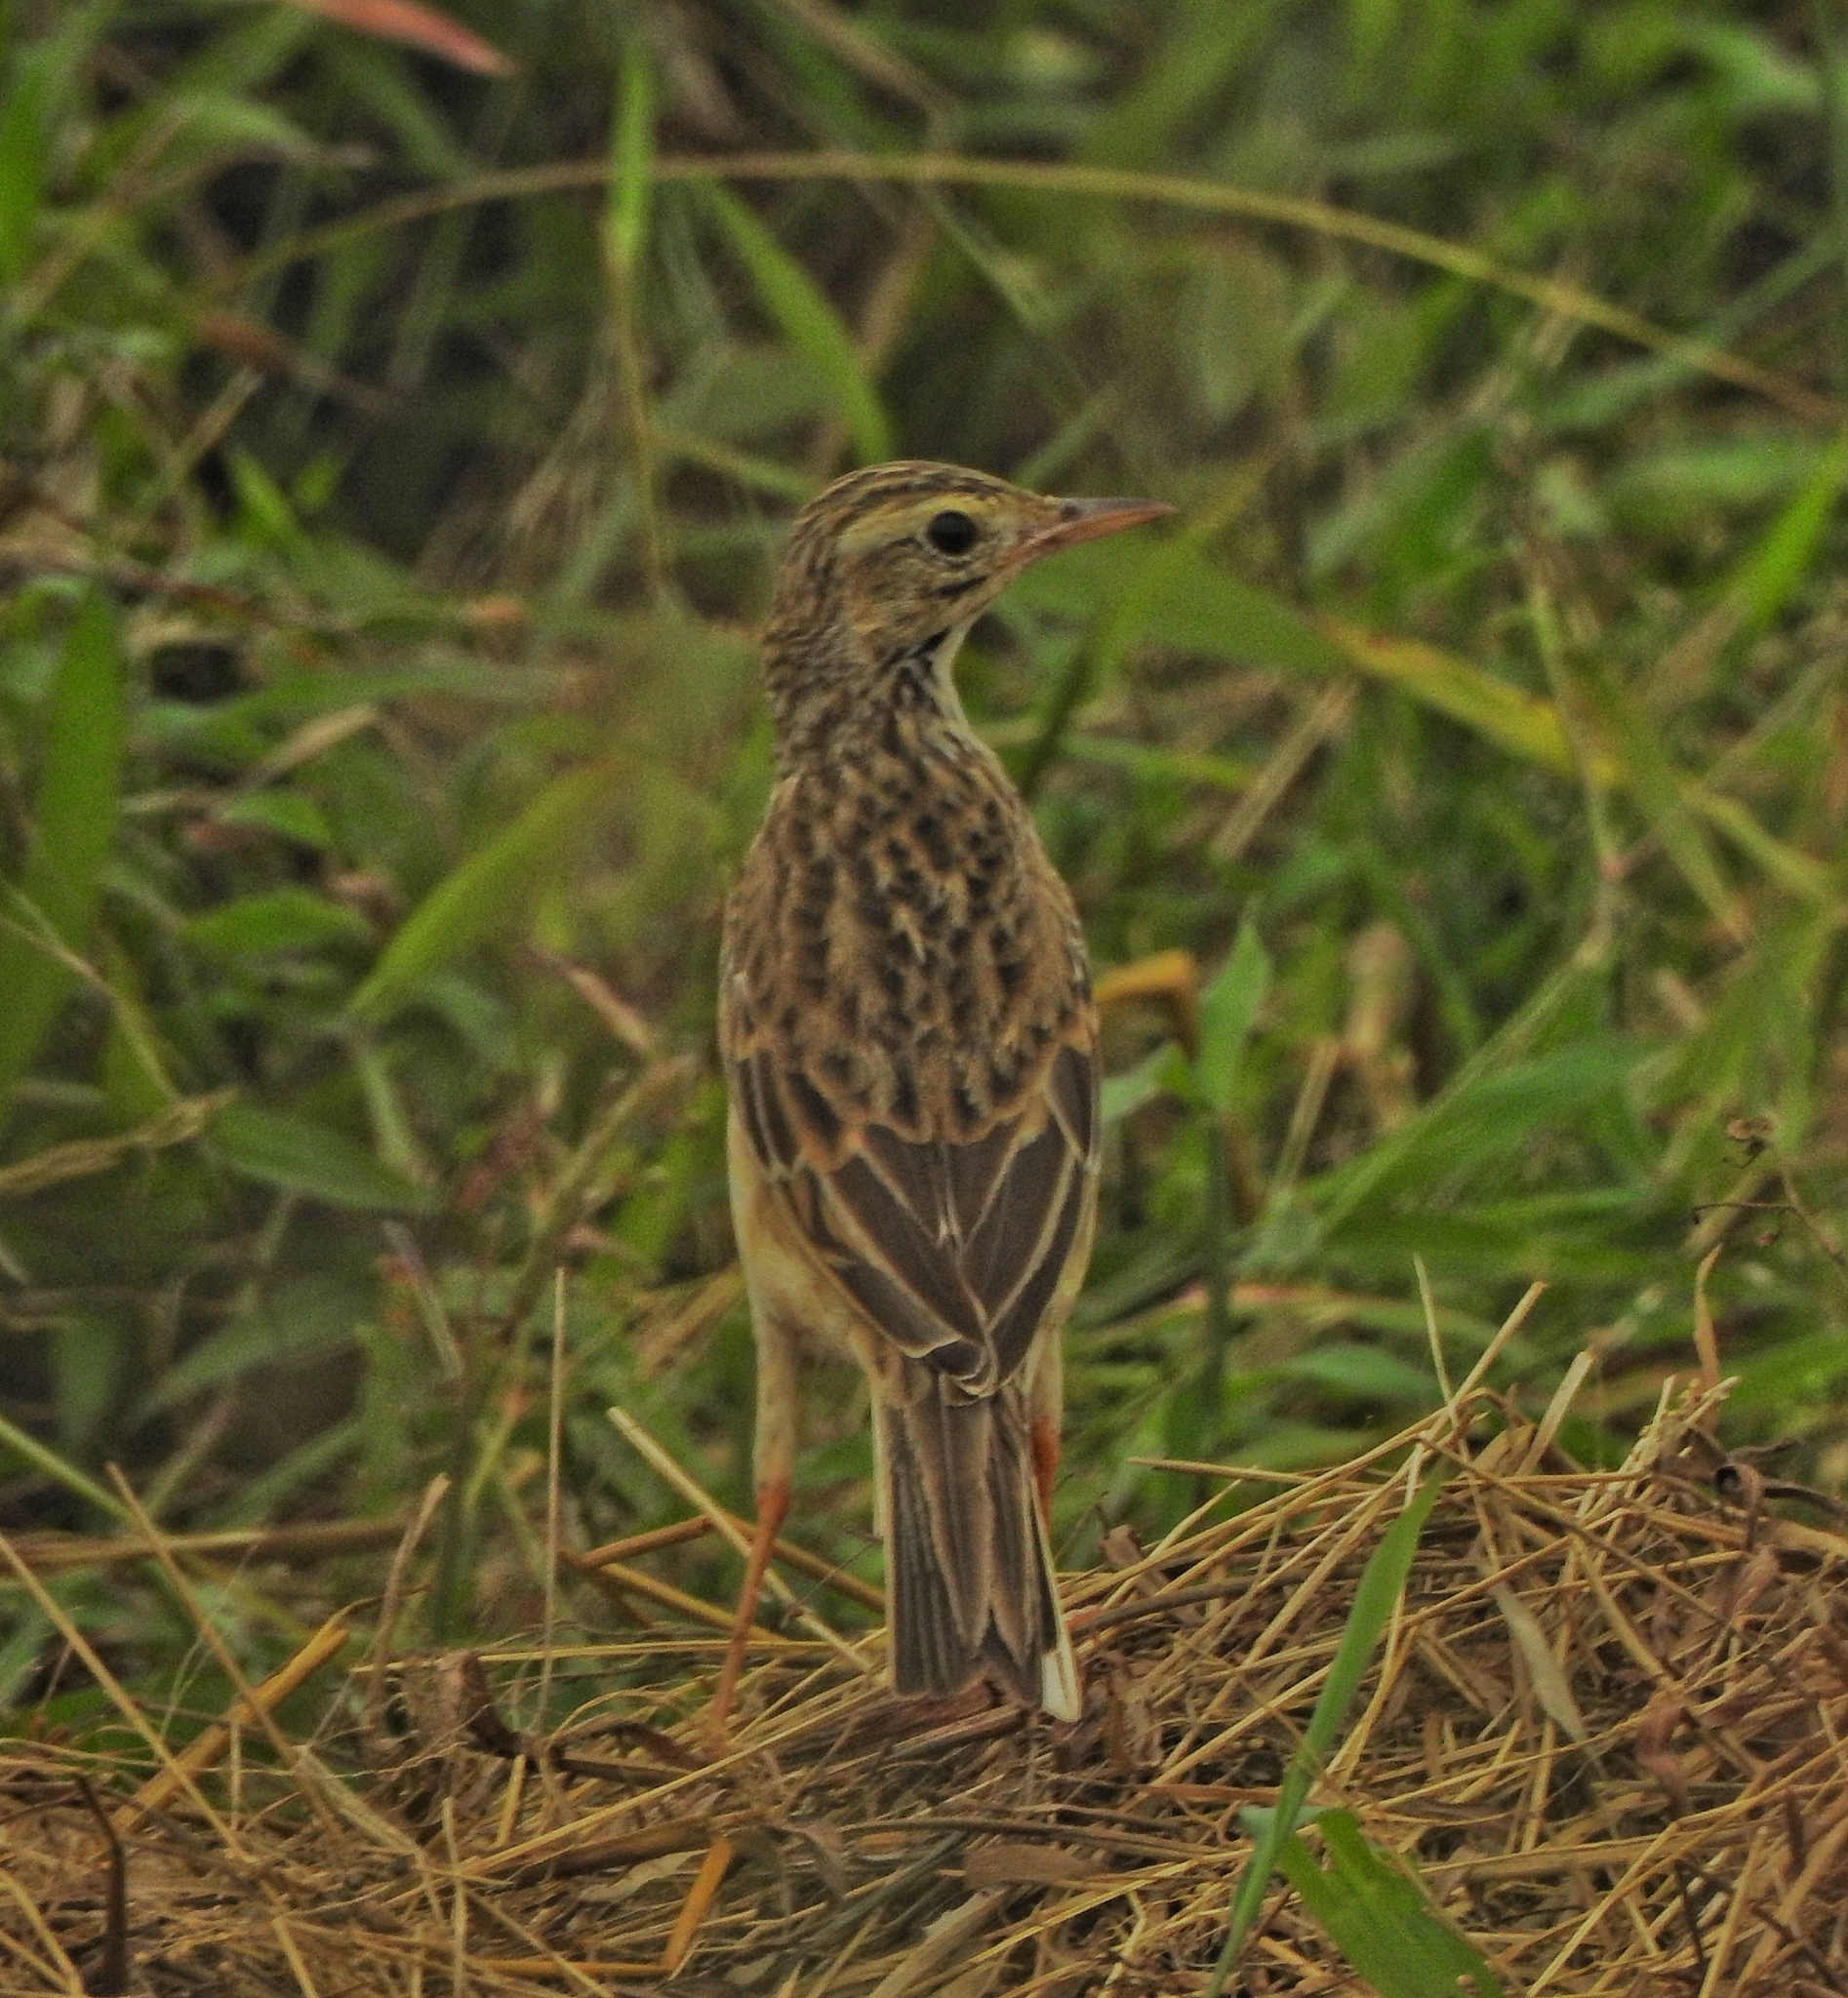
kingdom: Animalia
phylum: Chordata
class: Aves
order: Passeriformes
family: Motacillidae
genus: Anthus
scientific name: Anthus richardi
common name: Richard's pipit
